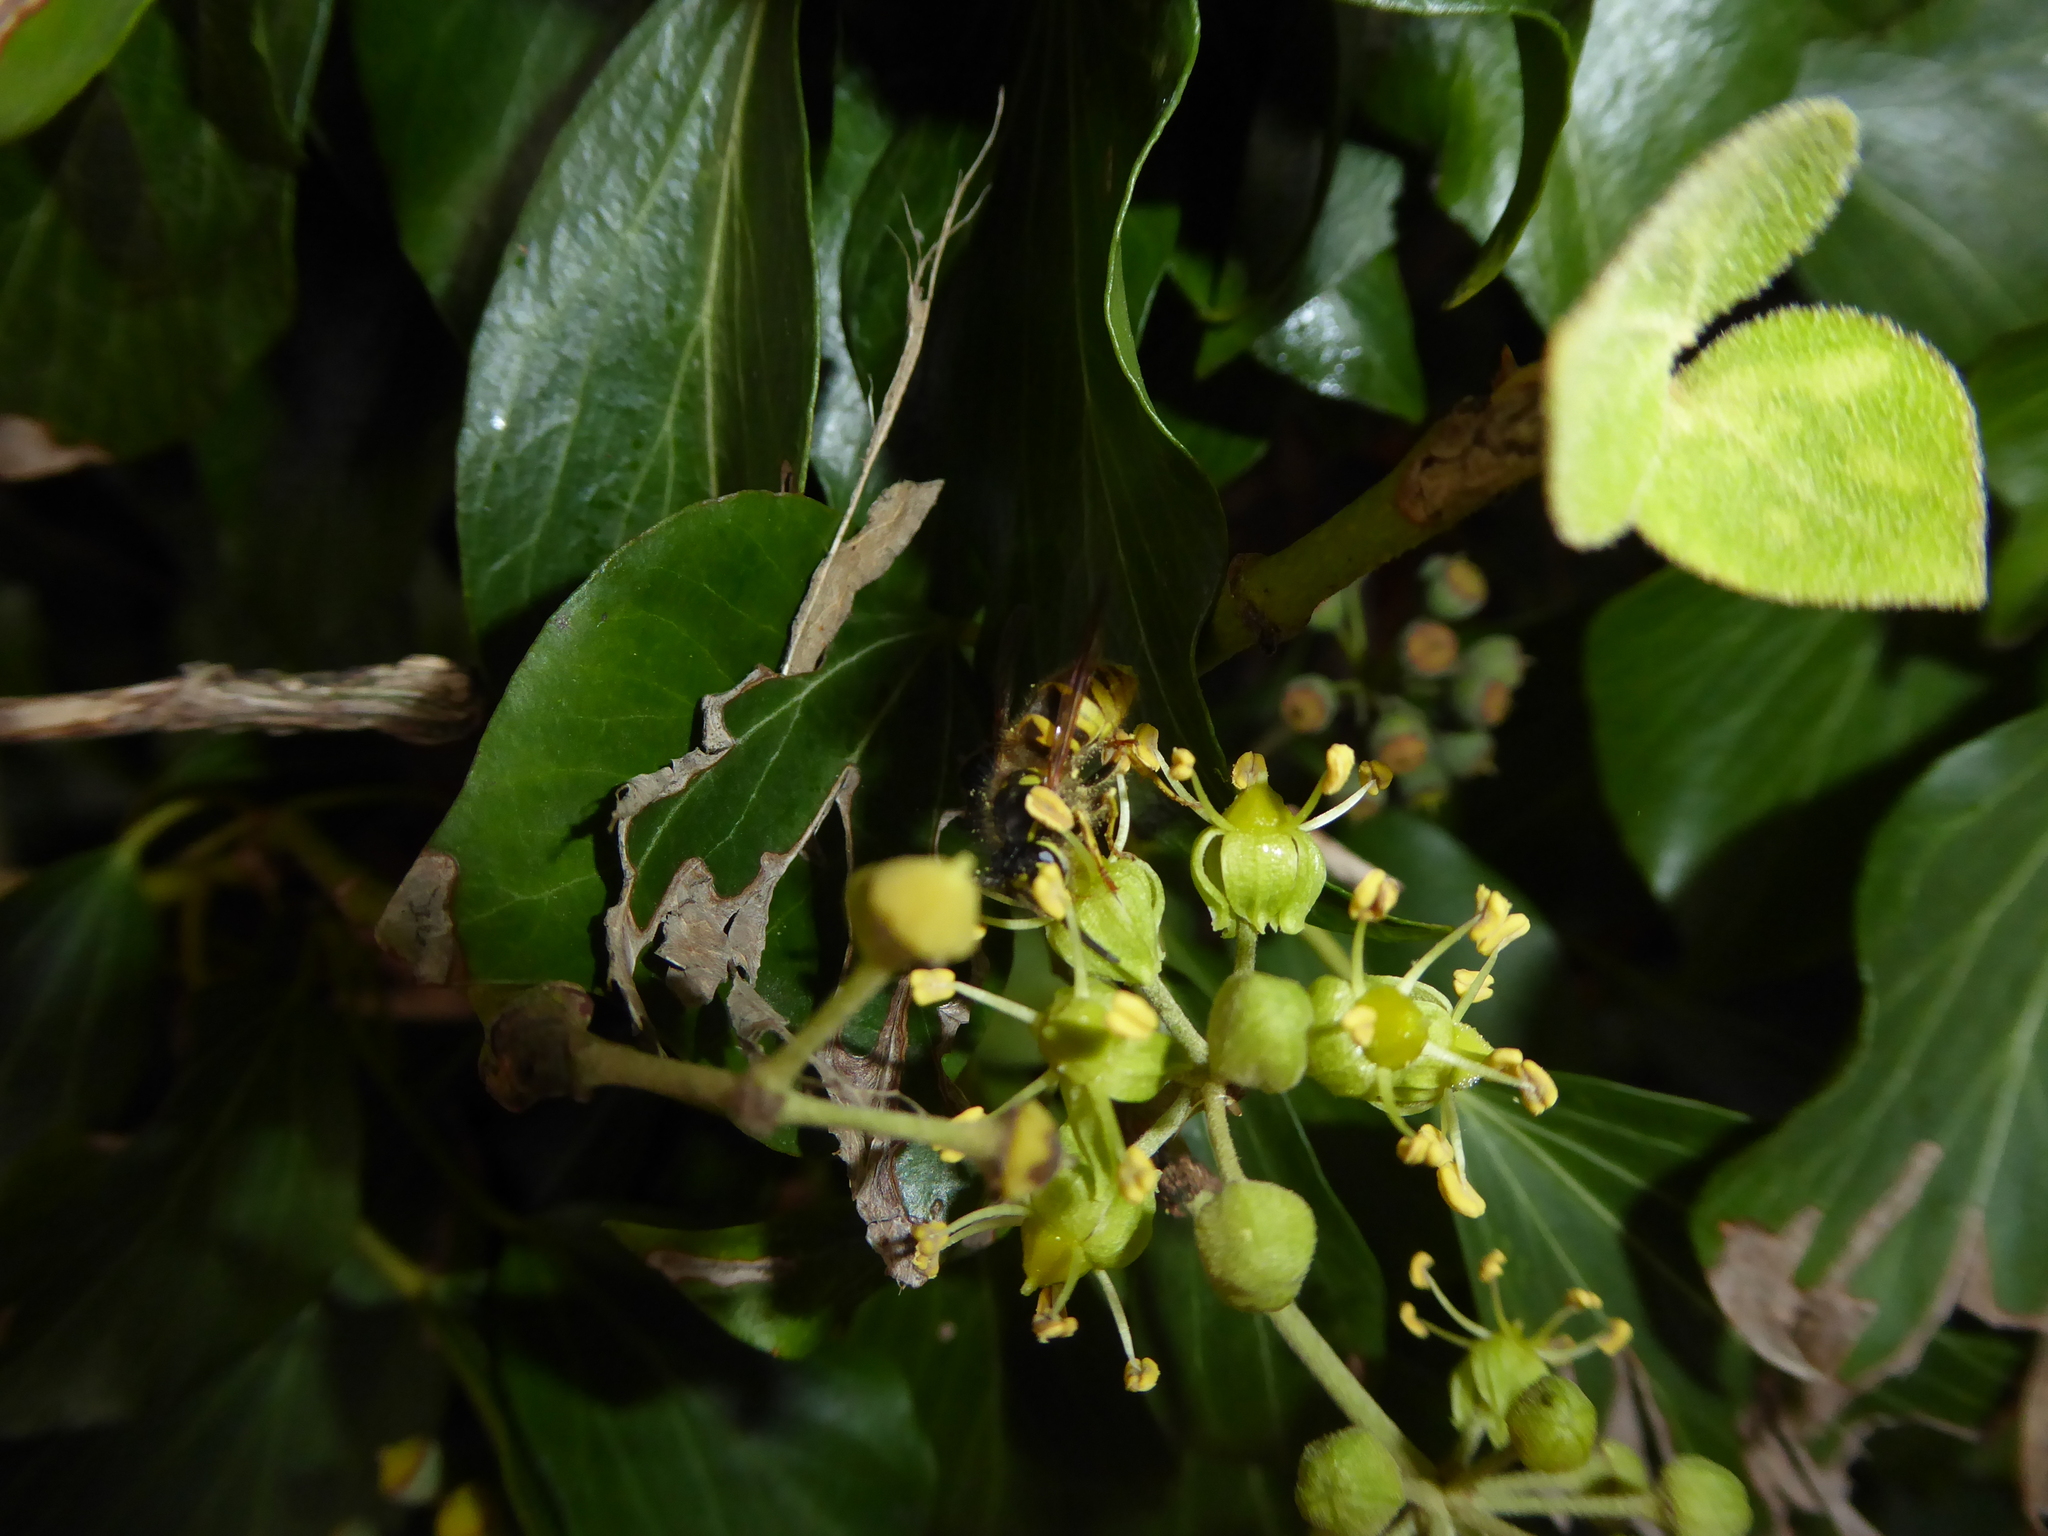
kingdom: Animalia
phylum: Arthropoda
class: Insecta
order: Hymenoptera
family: Vespidae
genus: Vespula
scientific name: Vespula vulgaris
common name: Common wasp
